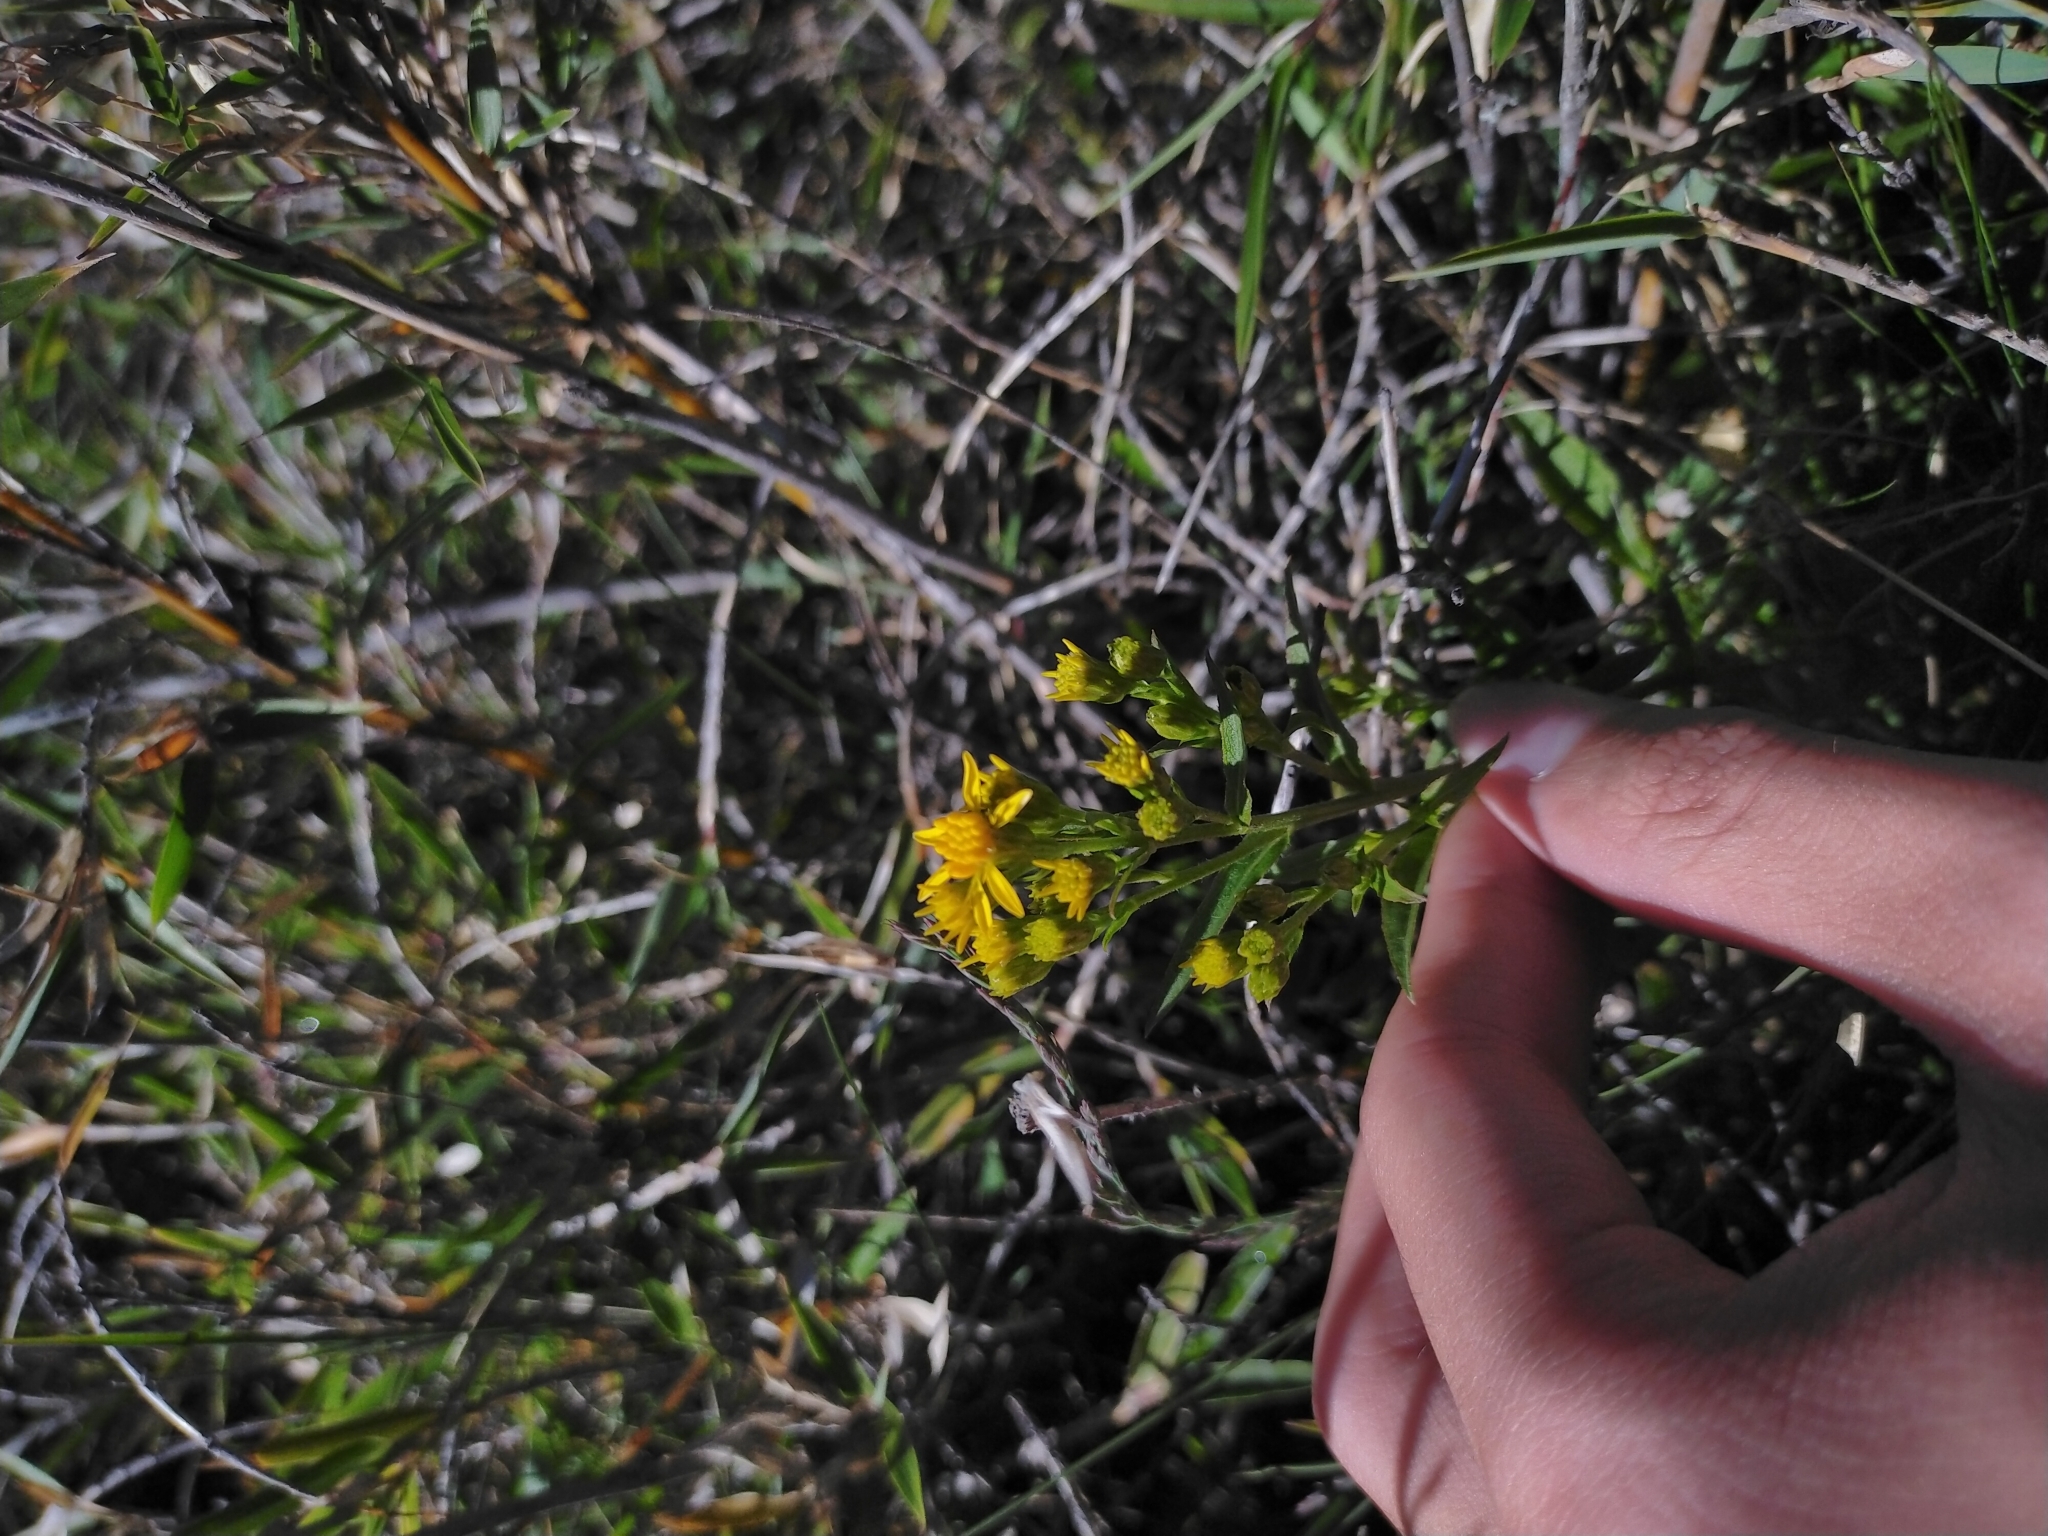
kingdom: Plantae
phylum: Tracheophyta
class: Magnoliopsida
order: Asterales
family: Asteraceae
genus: Solidago
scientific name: Solidago decurrens
